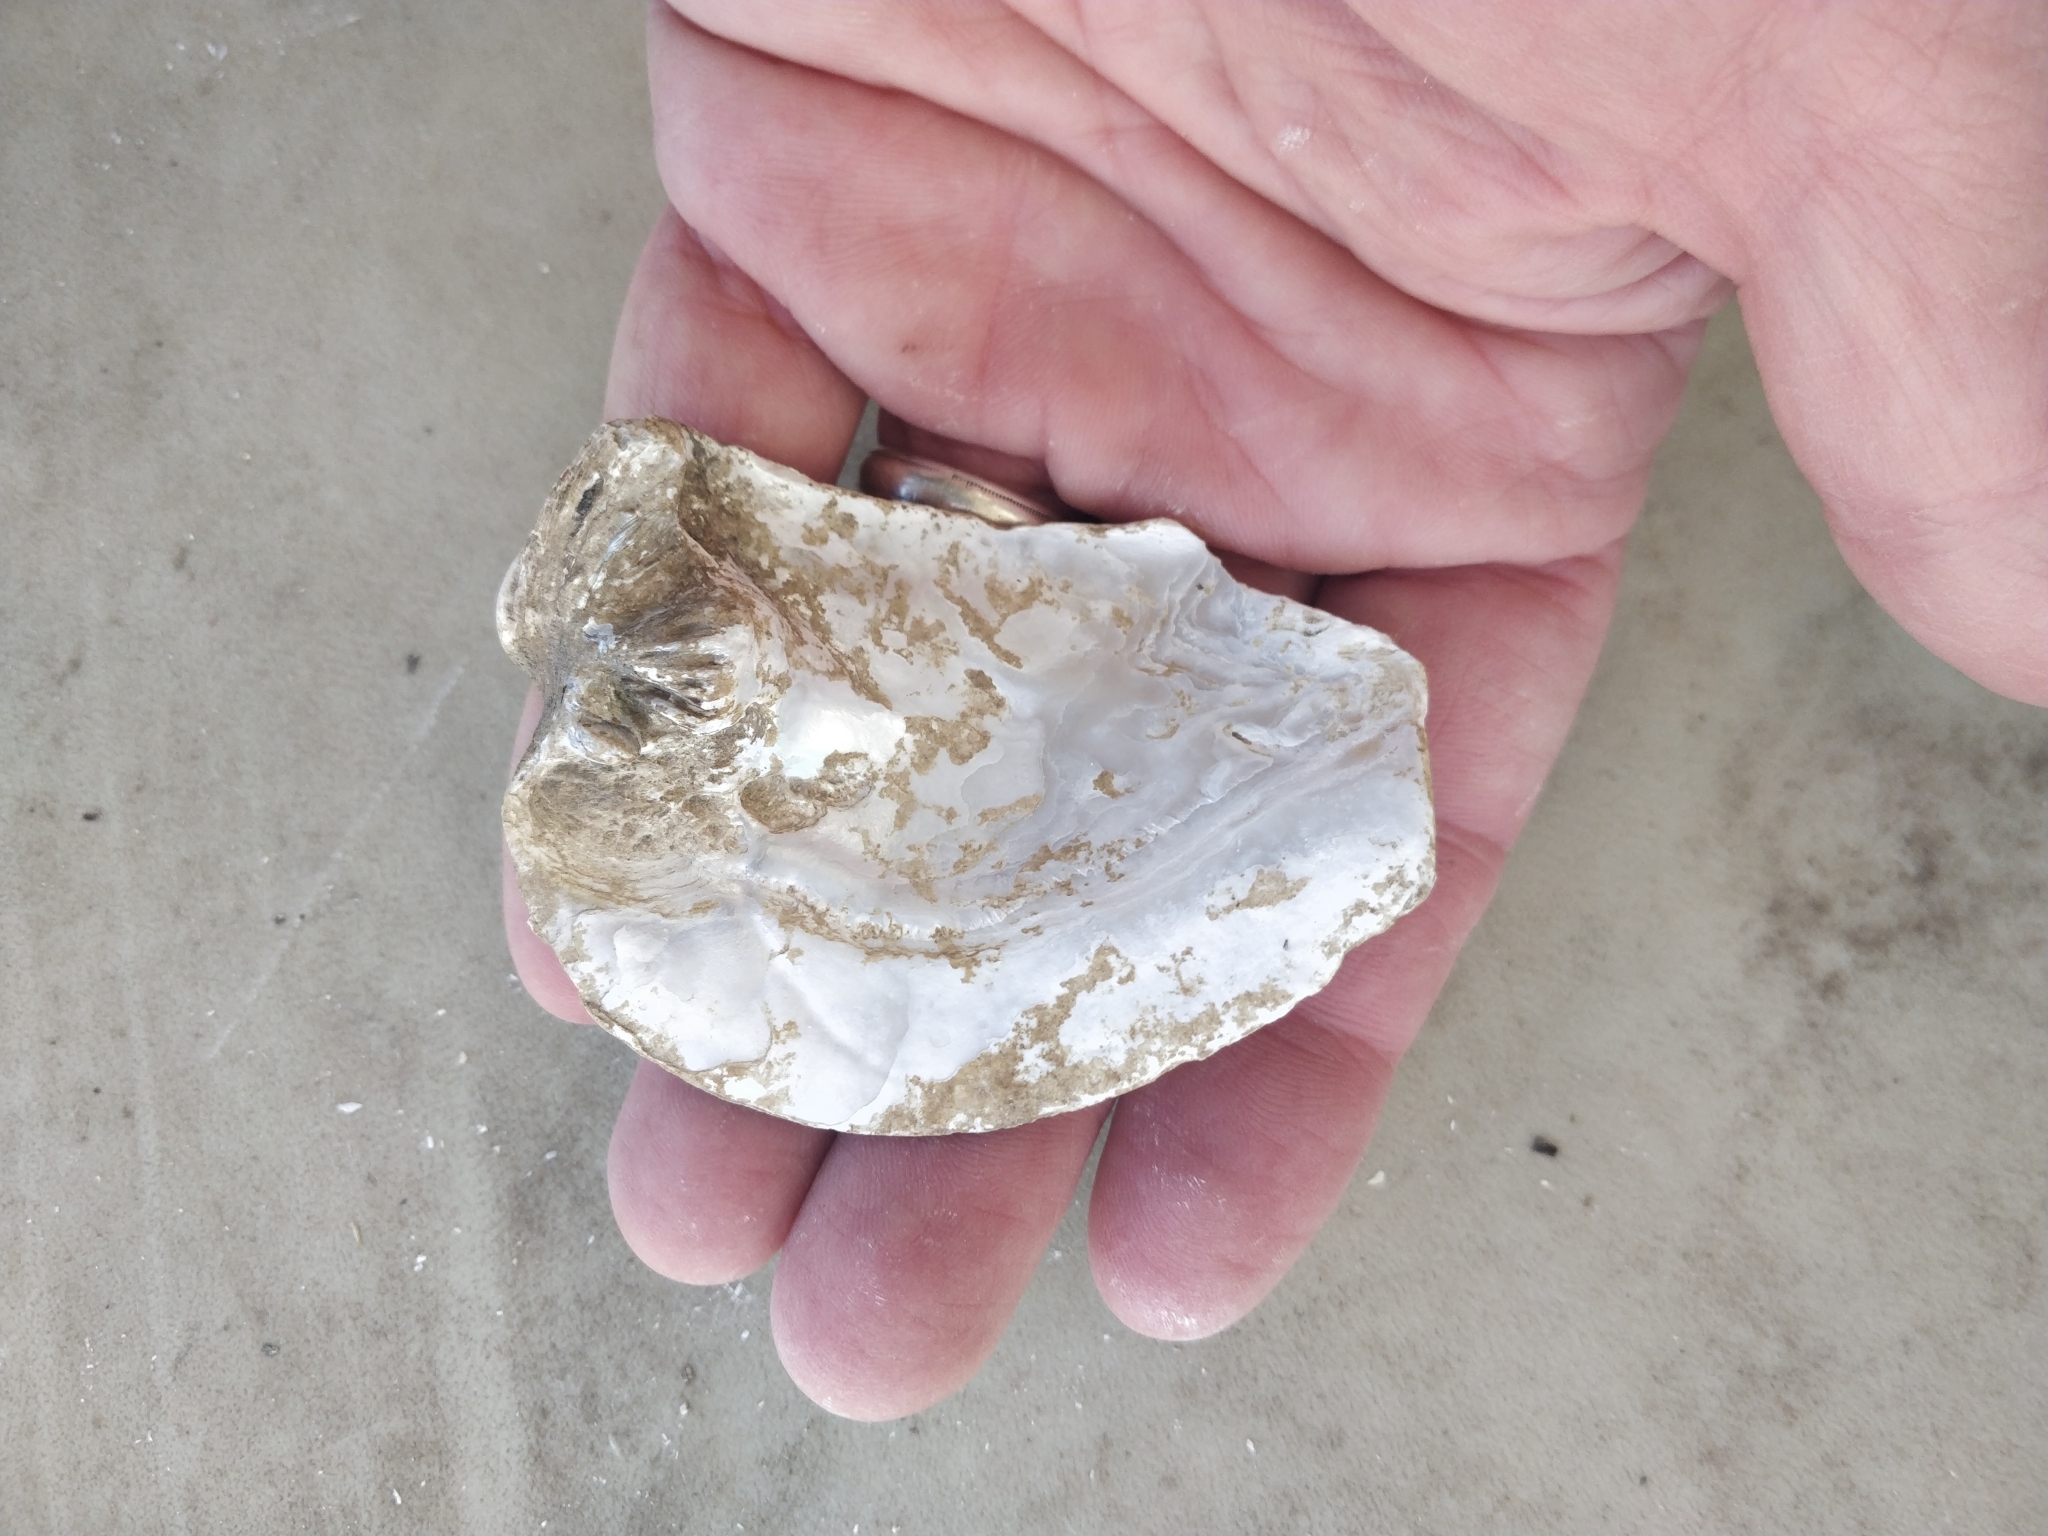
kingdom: Animalia
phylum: Mollusca
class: Bivalvia
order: Unionida
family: Unionidae
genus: Amblema
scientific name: Amblema plicata
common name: Threeridge
